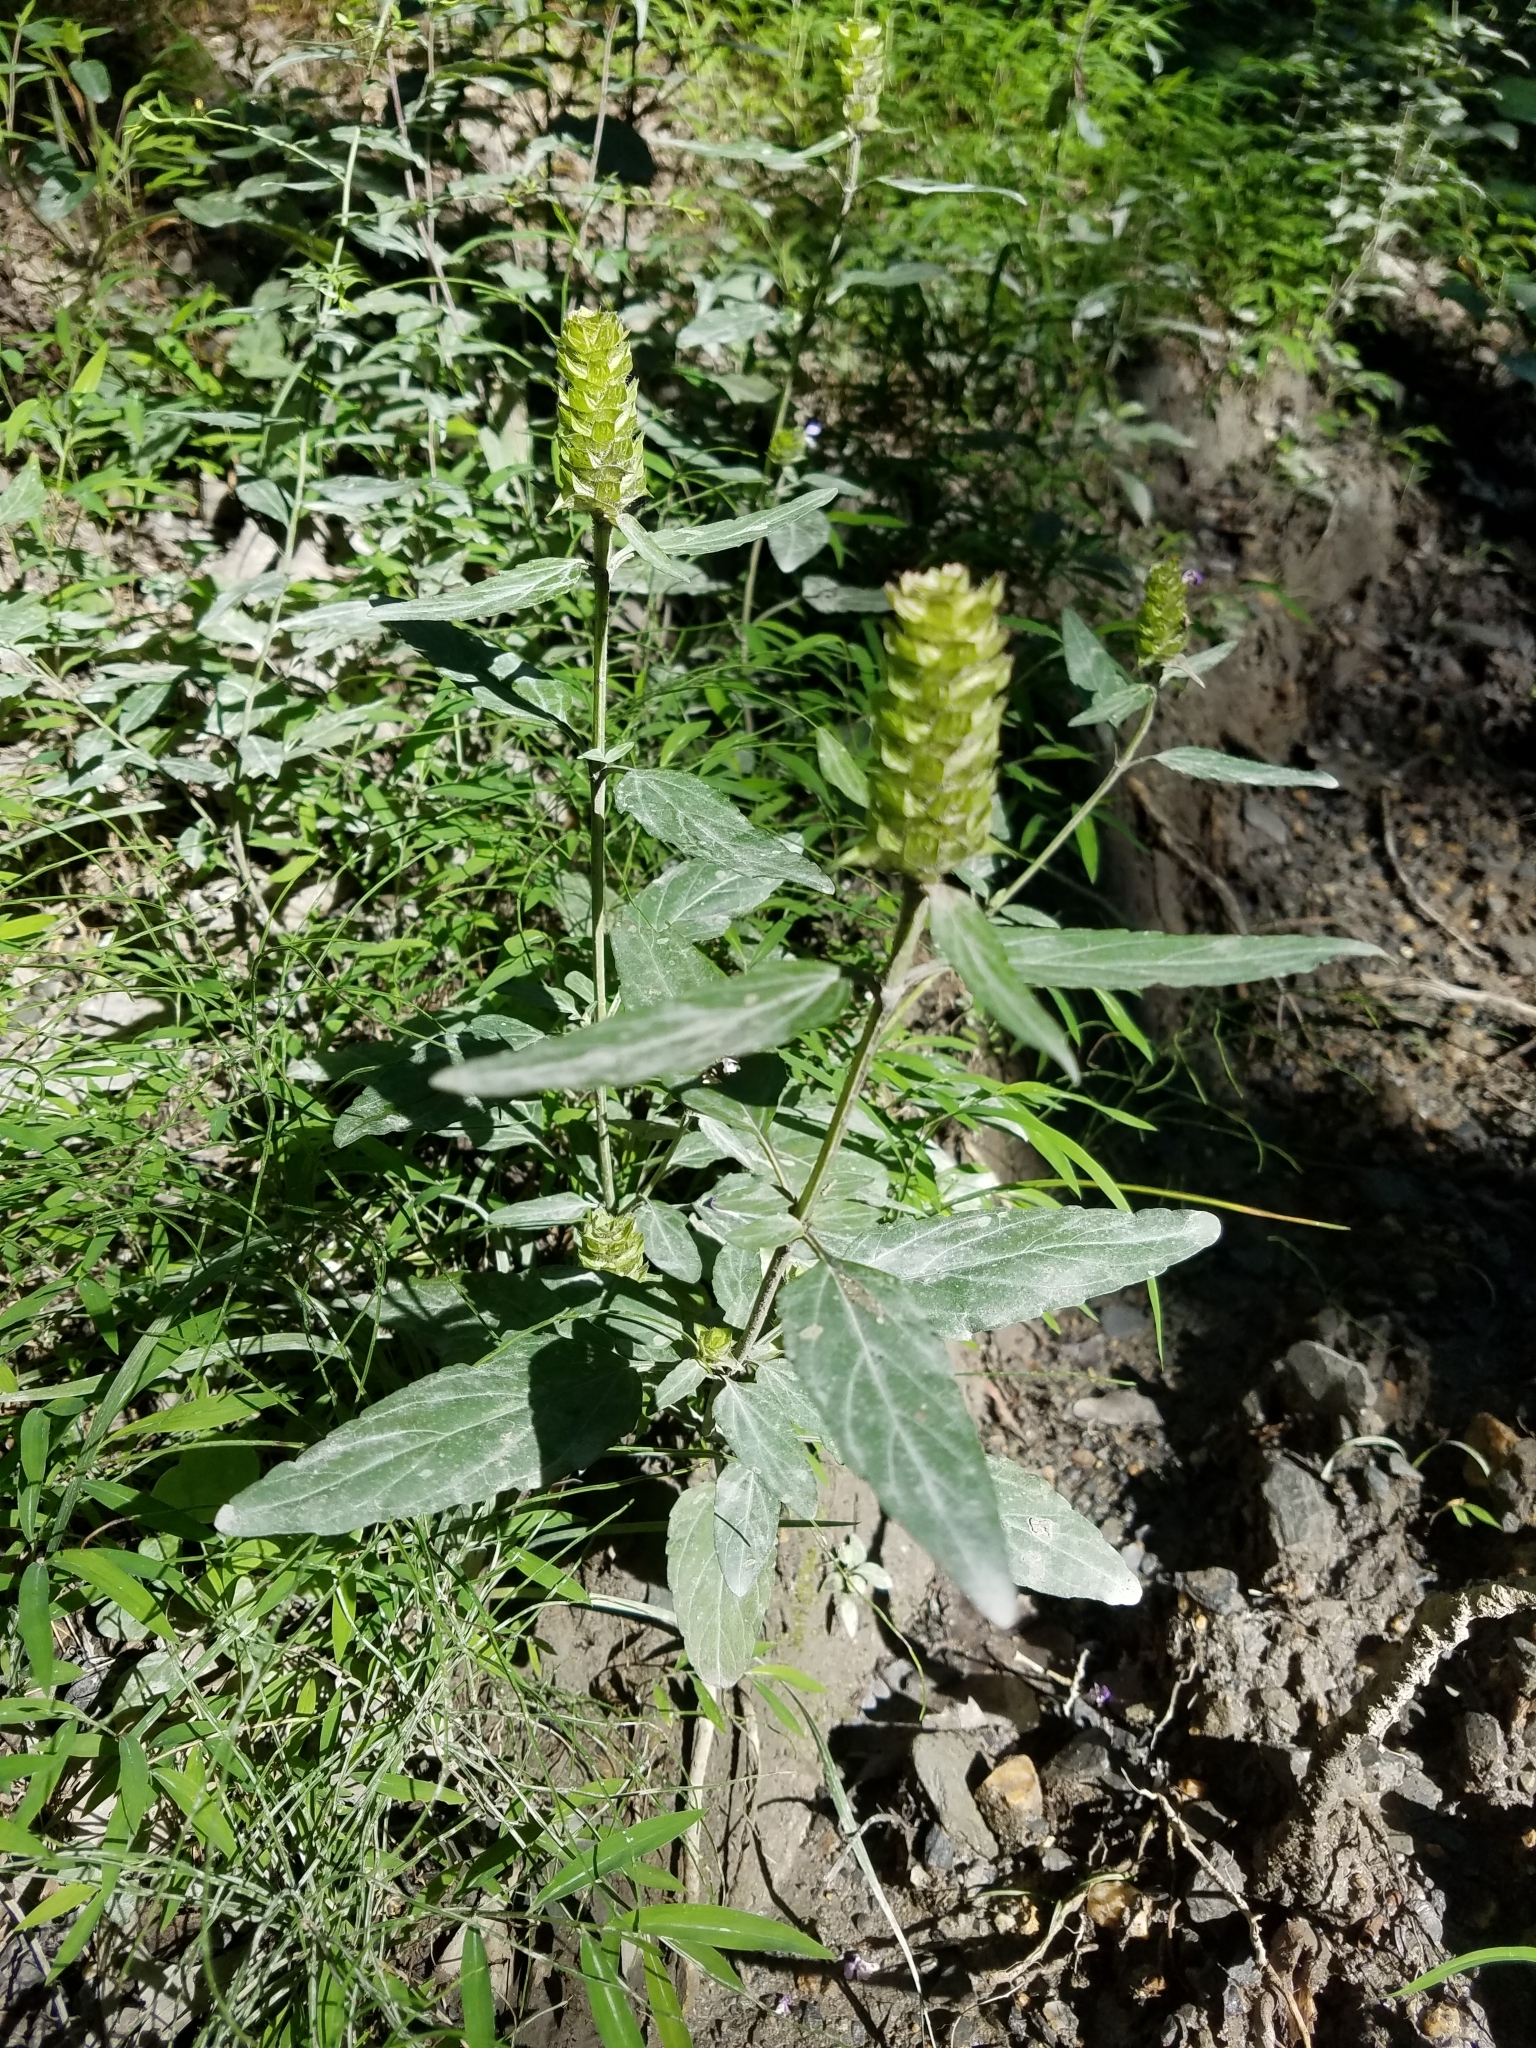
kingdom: Plantae
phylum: Tracheophyta
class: Magnoliopsida
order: Lamiales
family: Lamiaceae
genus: Prunella
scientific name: Prunella vulgaris
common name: Heal-all
